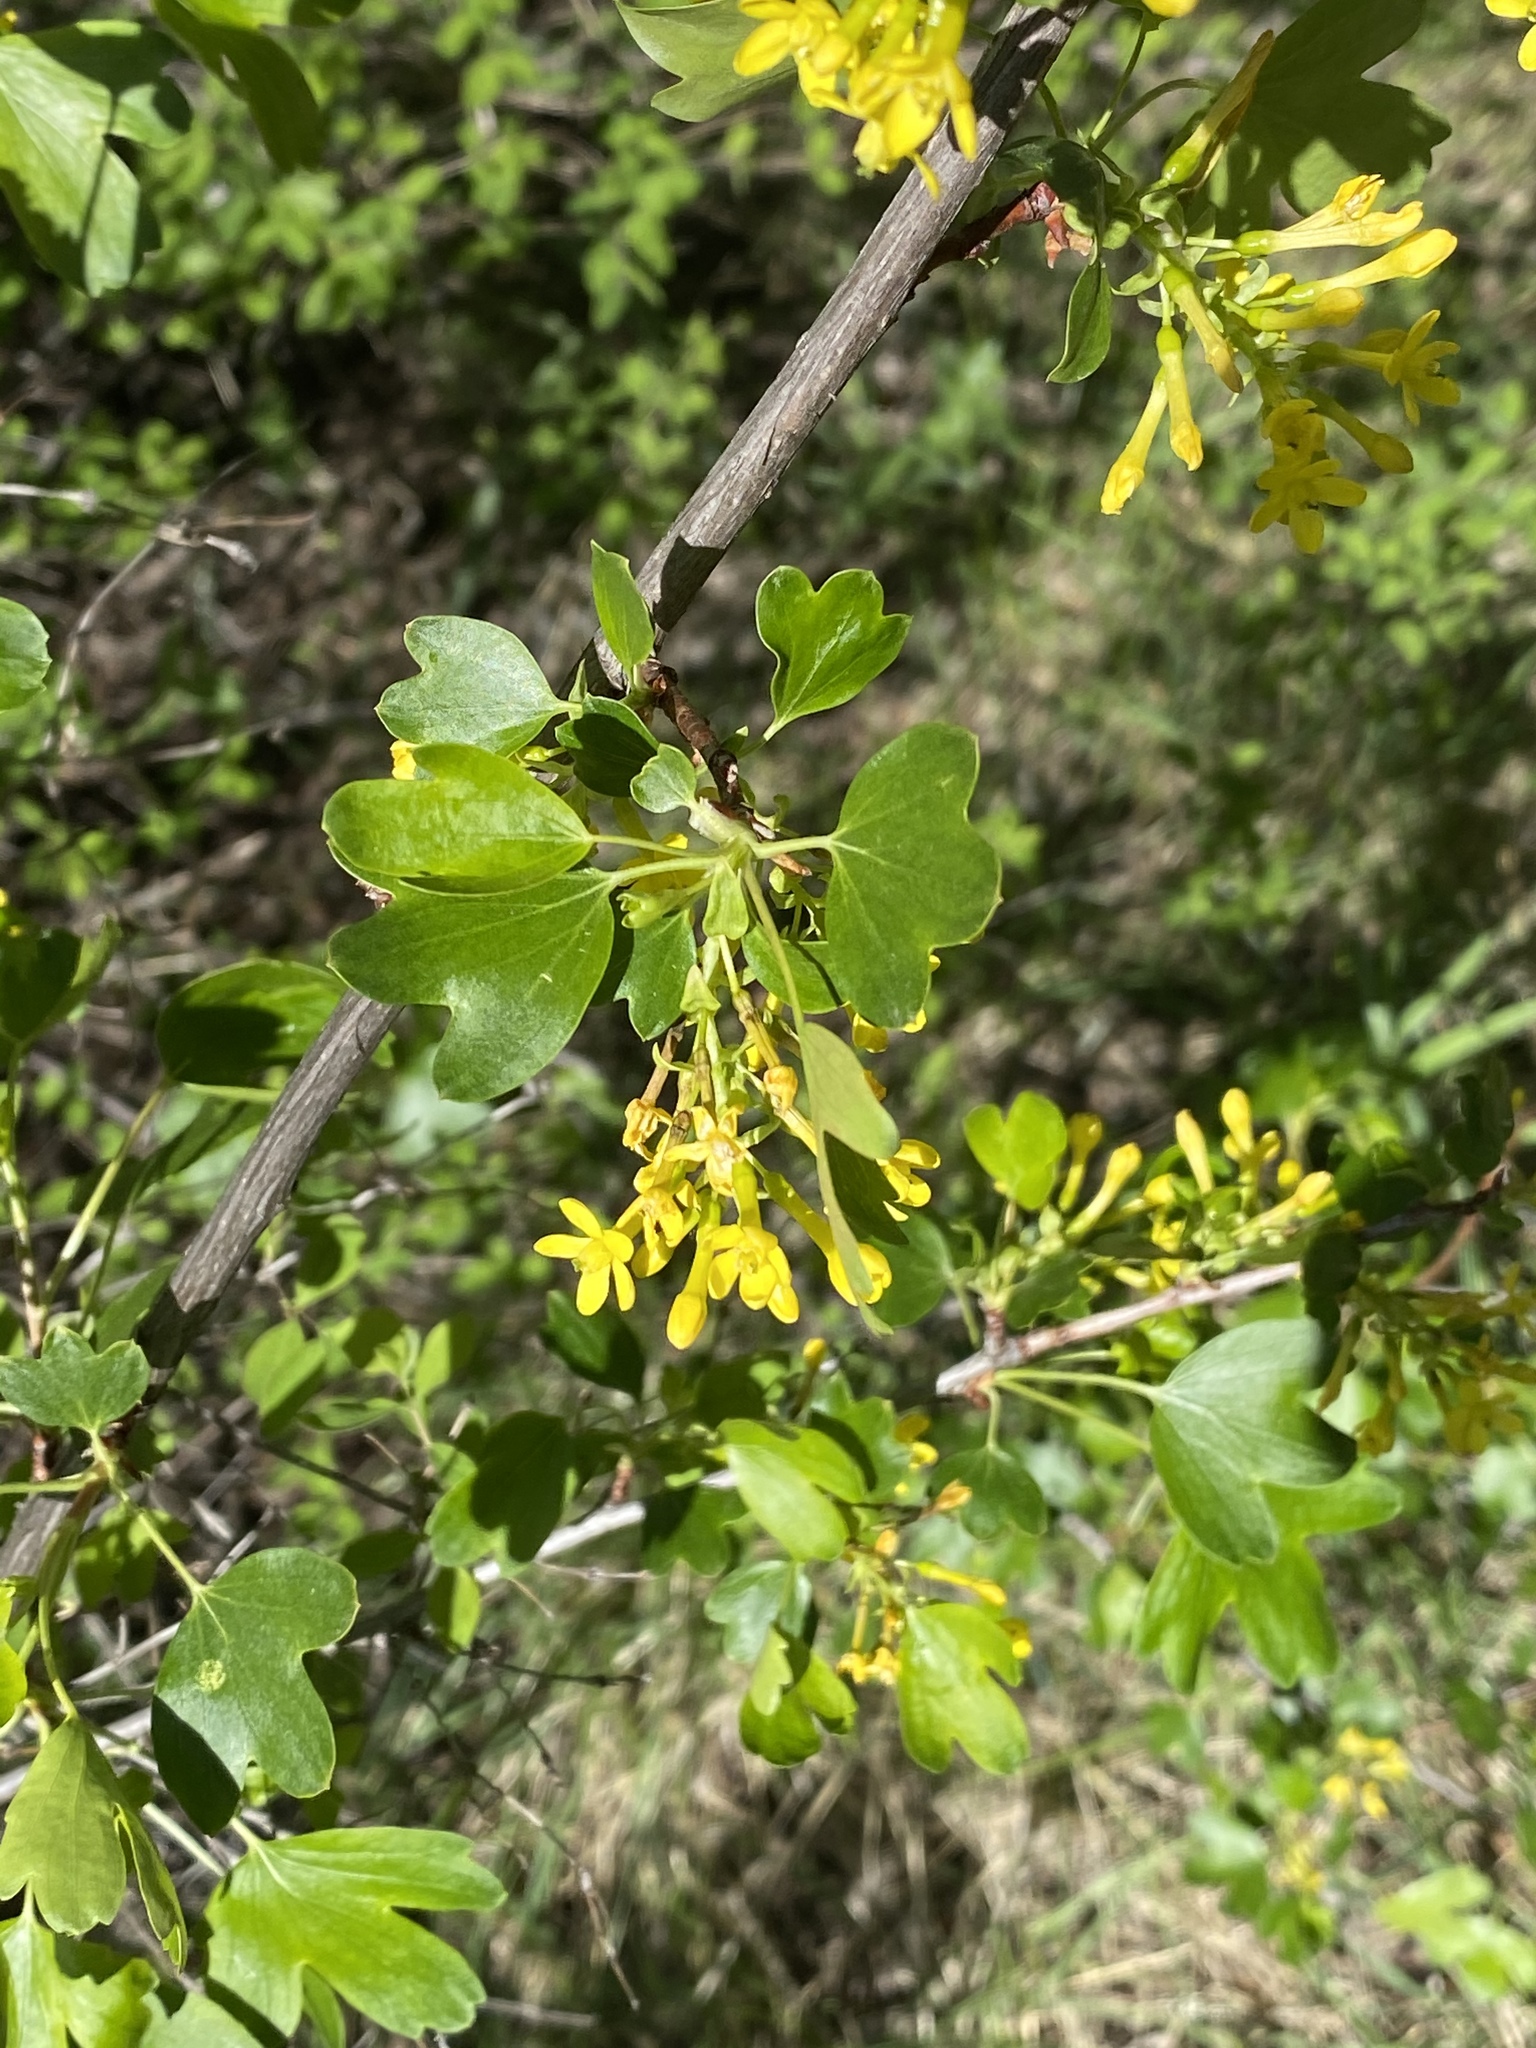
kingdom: Plantae
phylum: Tracheophyta
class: Magnoliopsida
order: Saxifragales
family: Grossulariaceae
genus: Ribes
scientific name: Ribes aureum
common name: Golden currant
